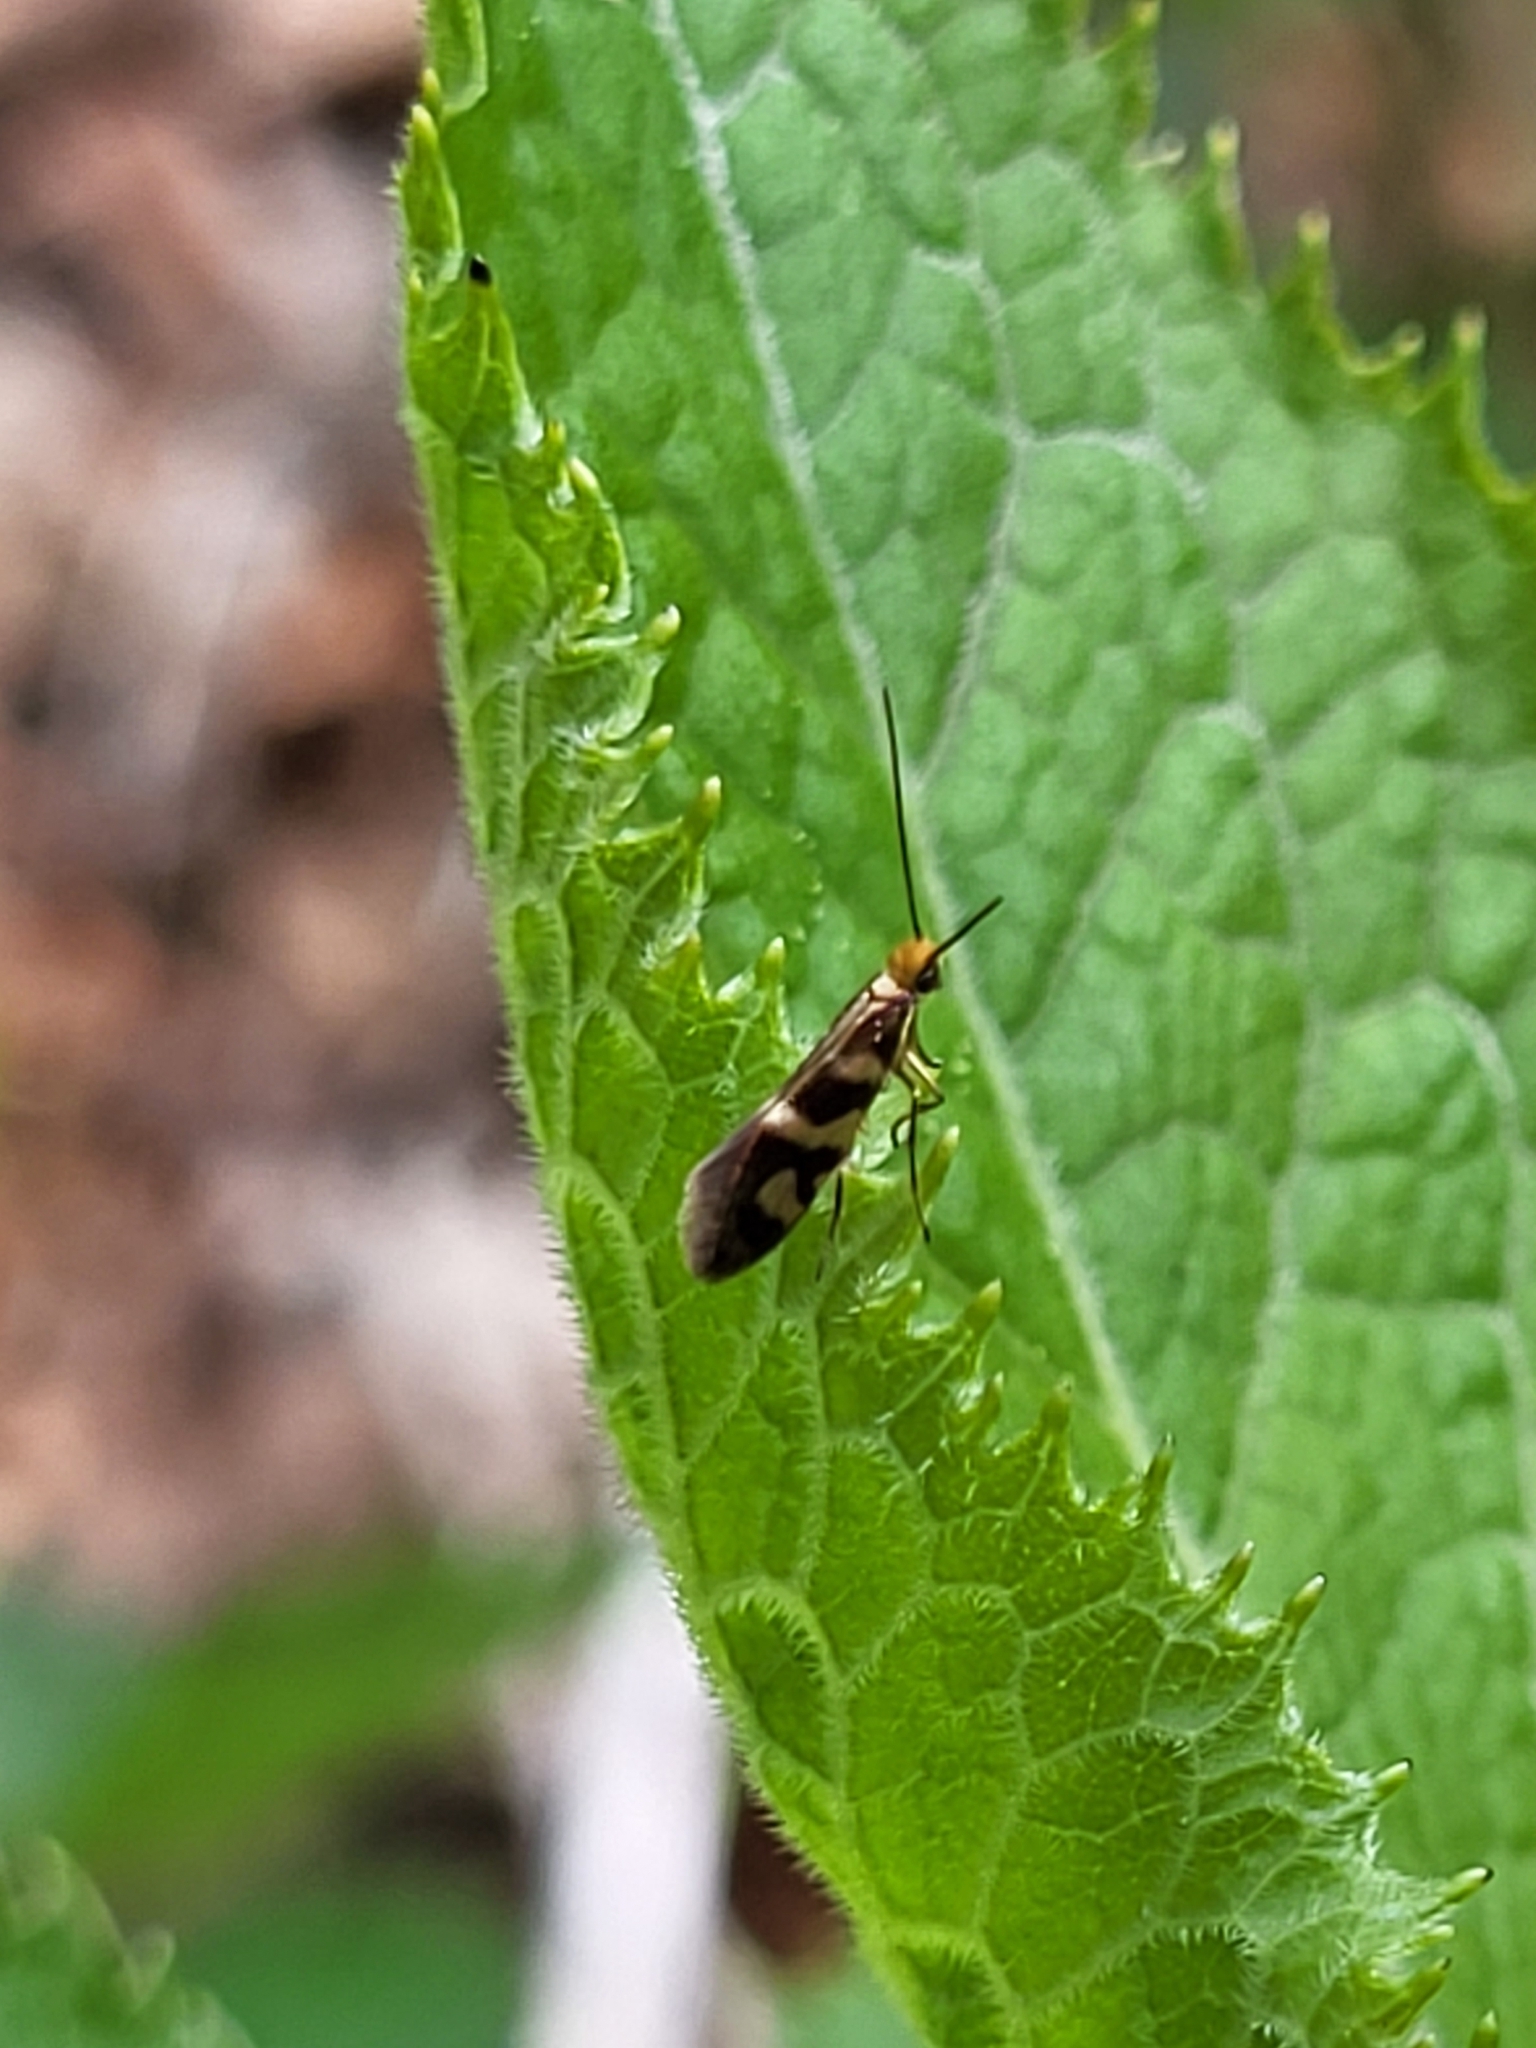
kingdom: Animalia
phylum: Arthropoda
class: Insecta
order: Lepidoptera
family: Micropterigidae
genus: Micropterix
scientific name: Micropterix schaefferi
